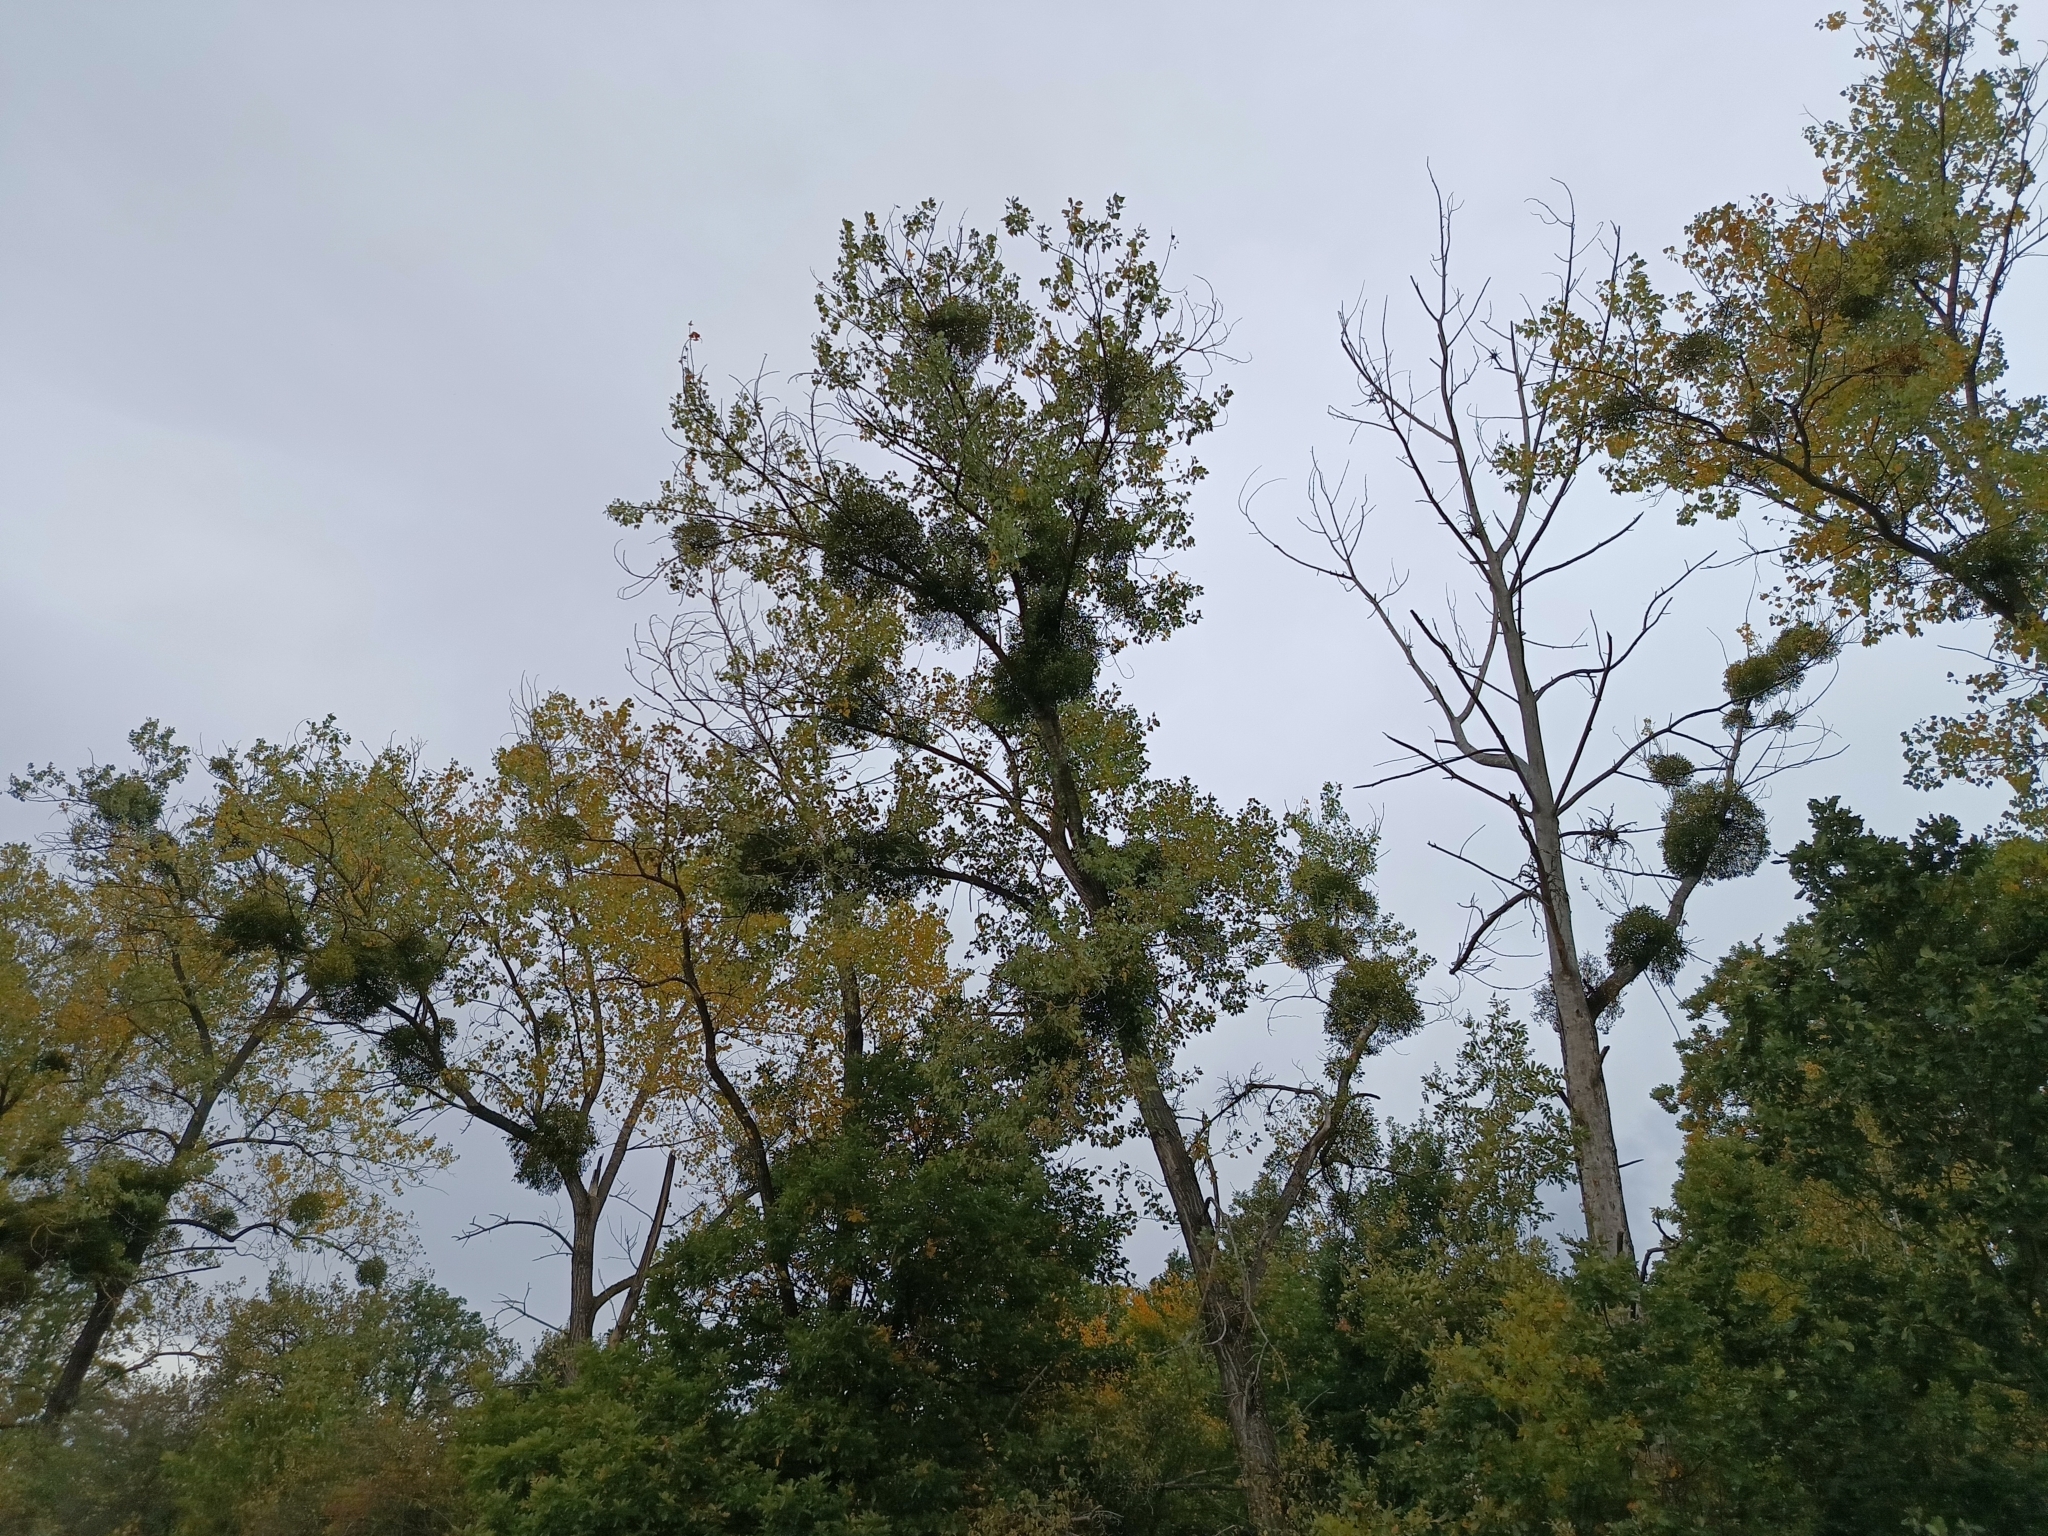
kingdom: Plantae
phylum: Tracheophyta
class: Magnoliopsida
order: Santalales
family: Viscaceae
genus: Viscum
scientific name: Viscum album
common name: Mistletoe
